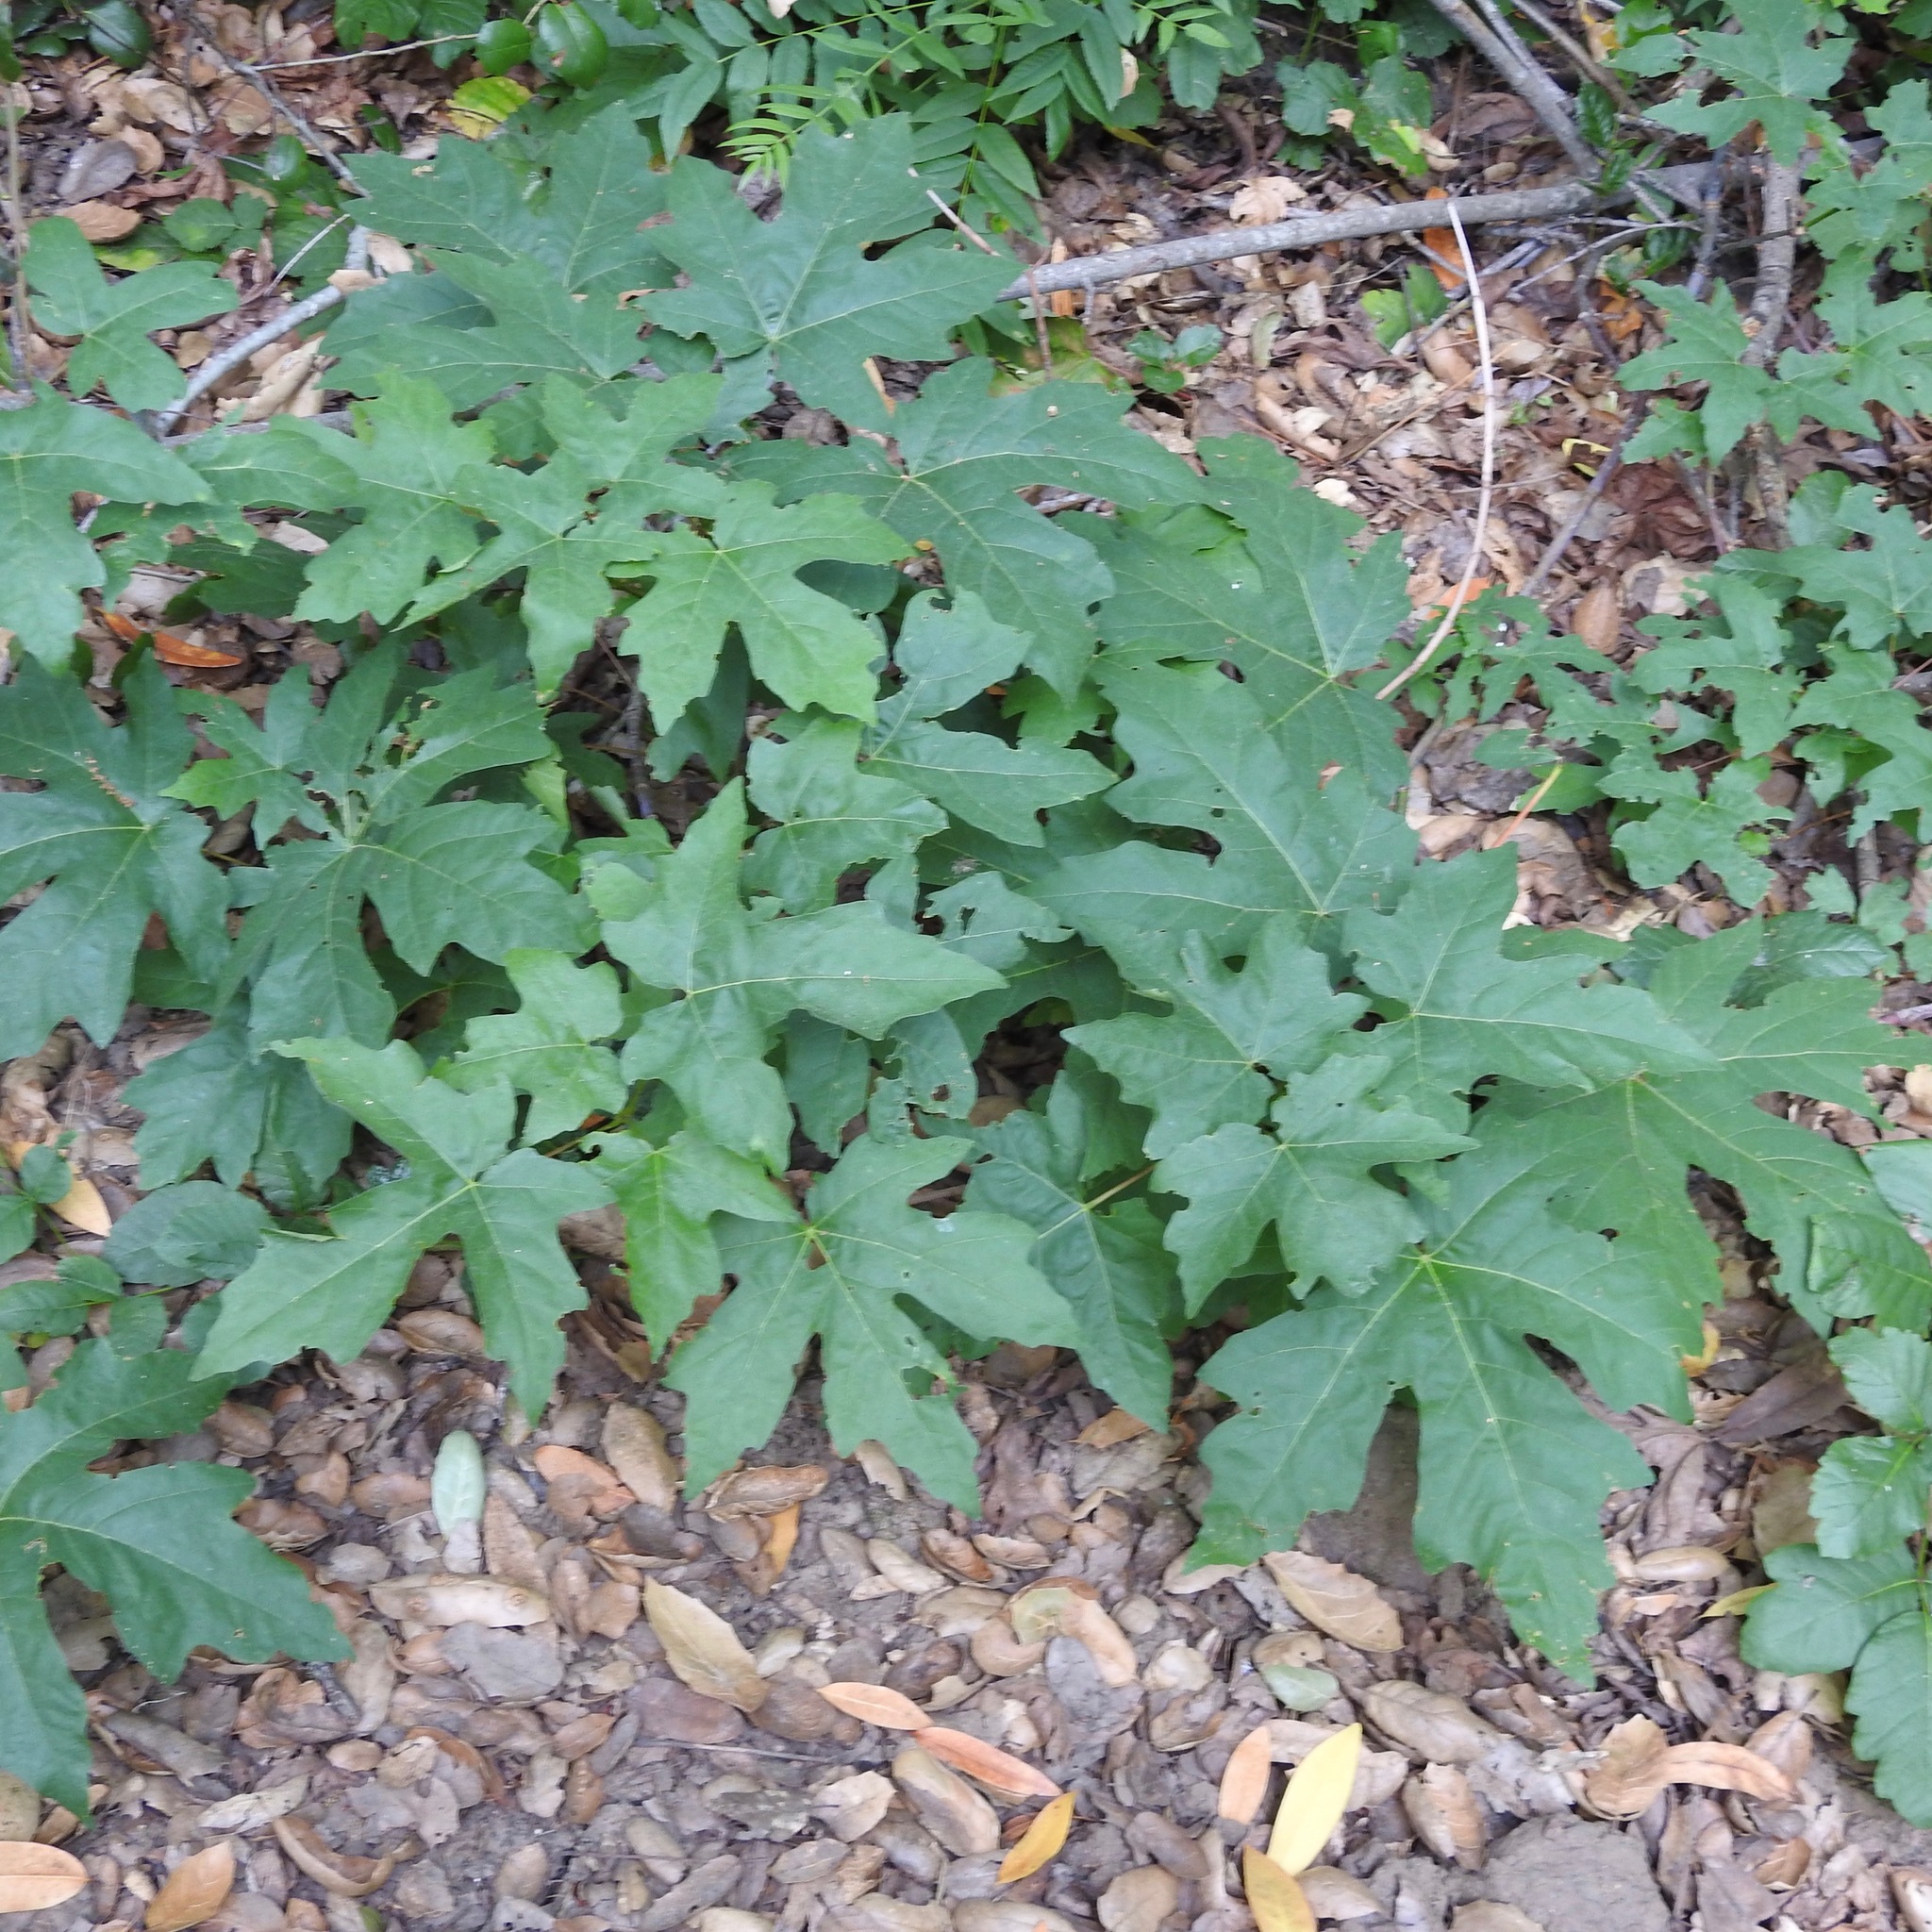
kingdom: Plantae
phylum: Tracheophyta
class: Magnoliopsida
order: Sapindales
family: Sapindaceae
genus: Acer
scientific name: Acer macrophyllum
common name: Oregon maple
